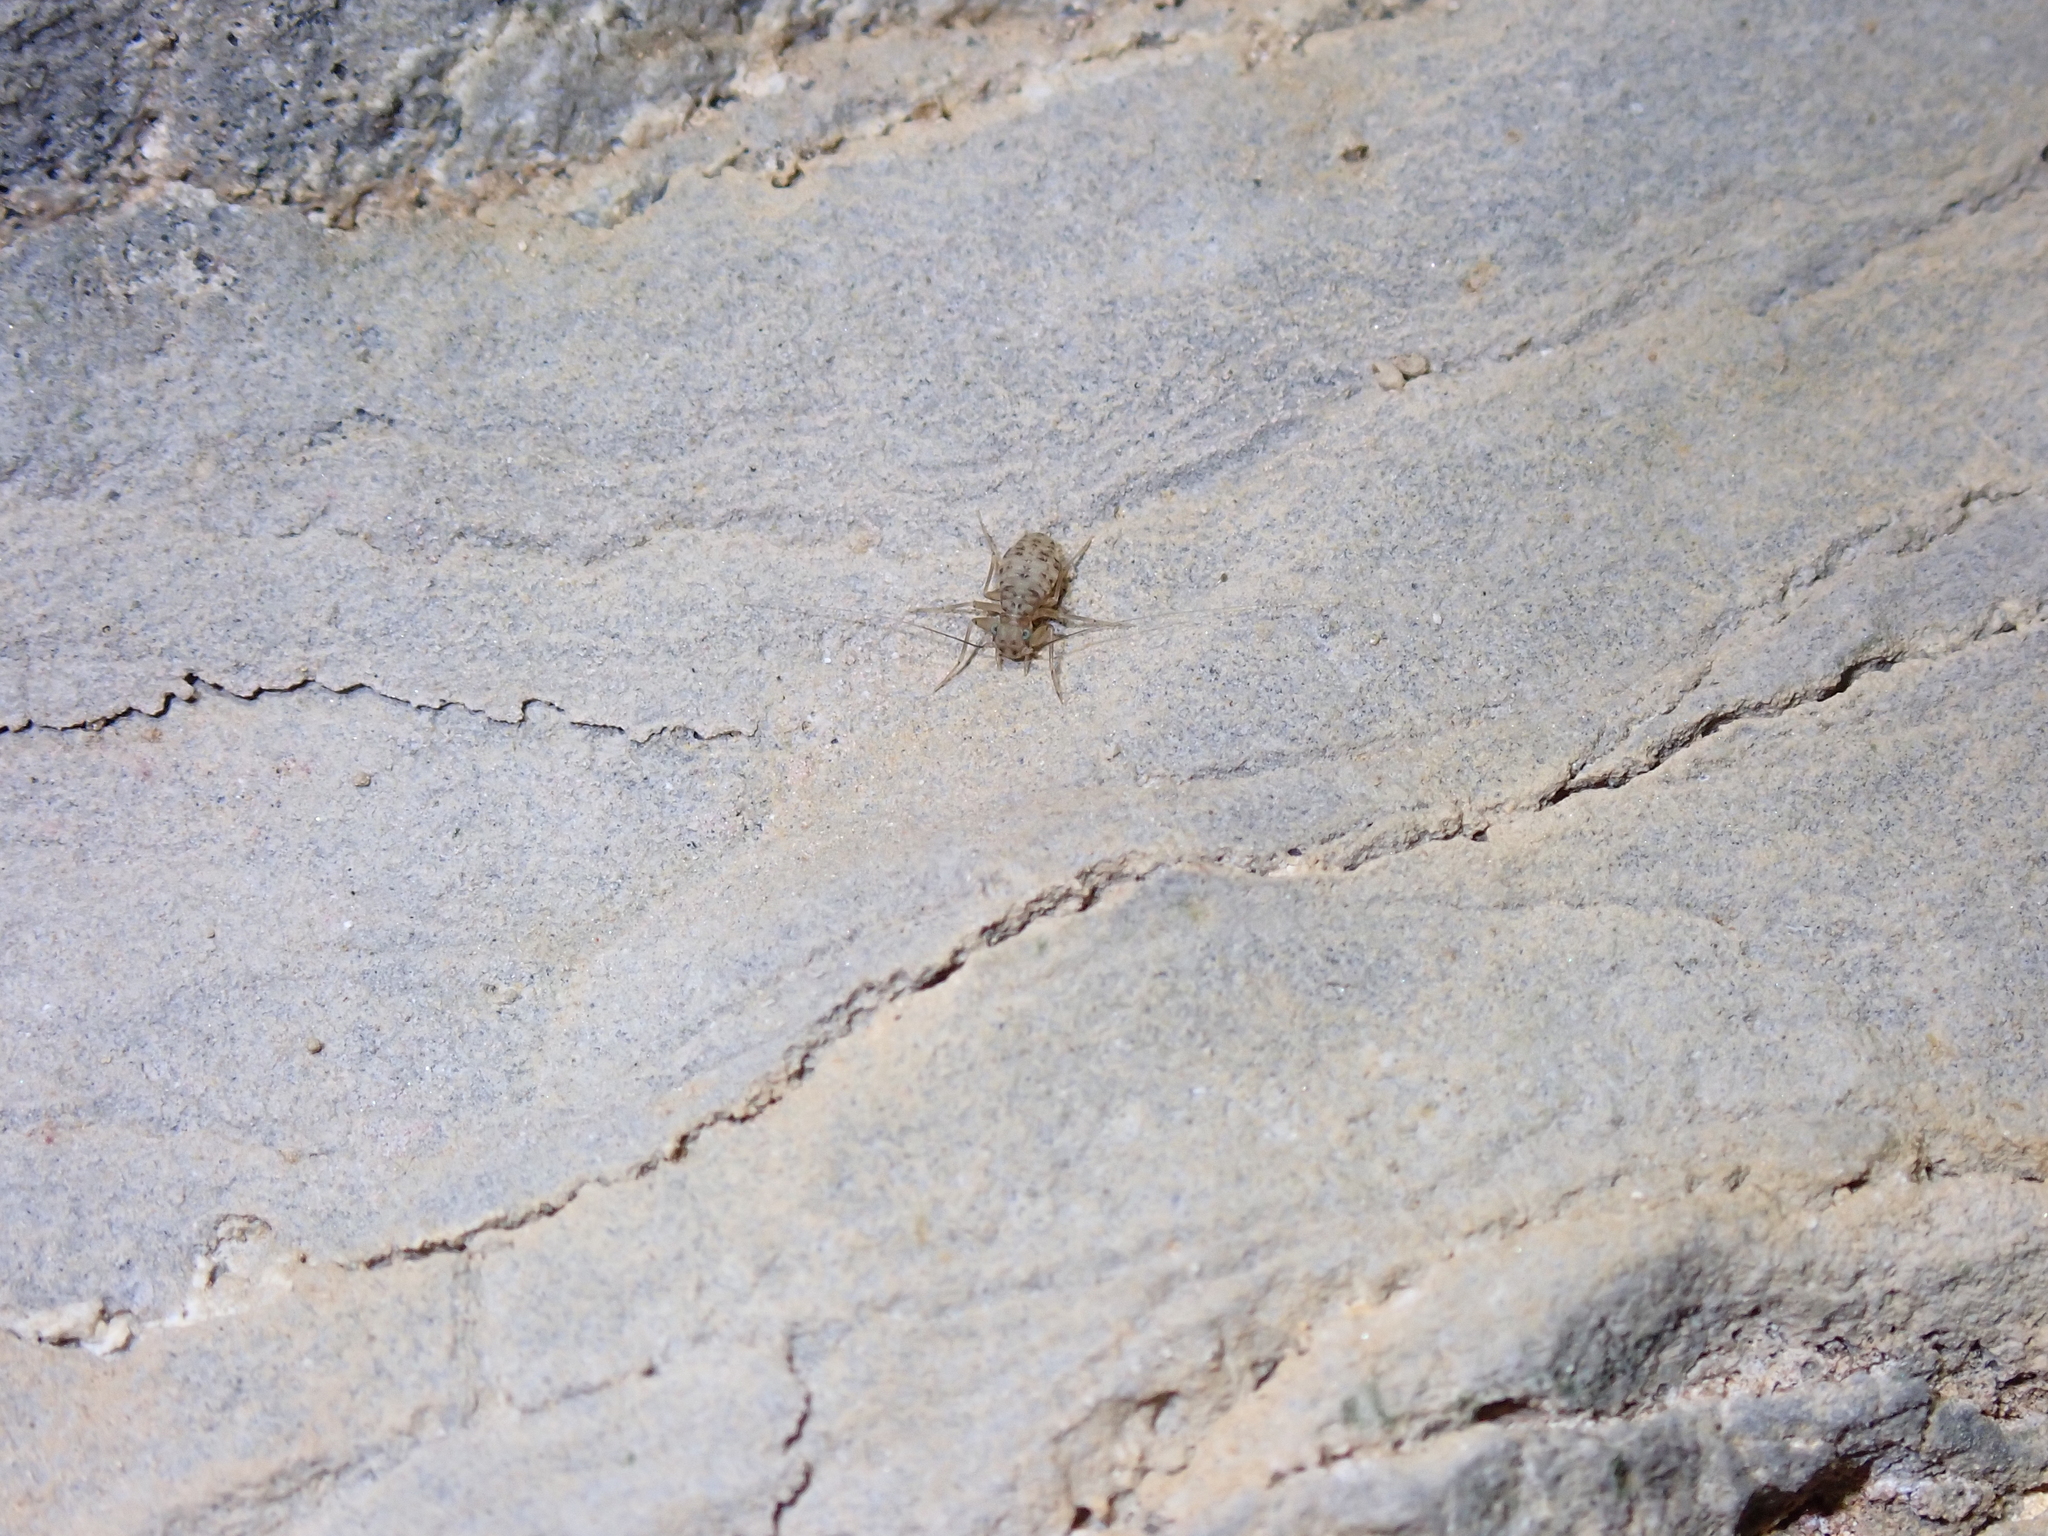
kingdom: Animalia
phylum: Arthropoda
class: Insecta
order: Psocodea
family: Prionoglarididae
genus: Prionoglaris
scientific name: Prionoglaris stygia
